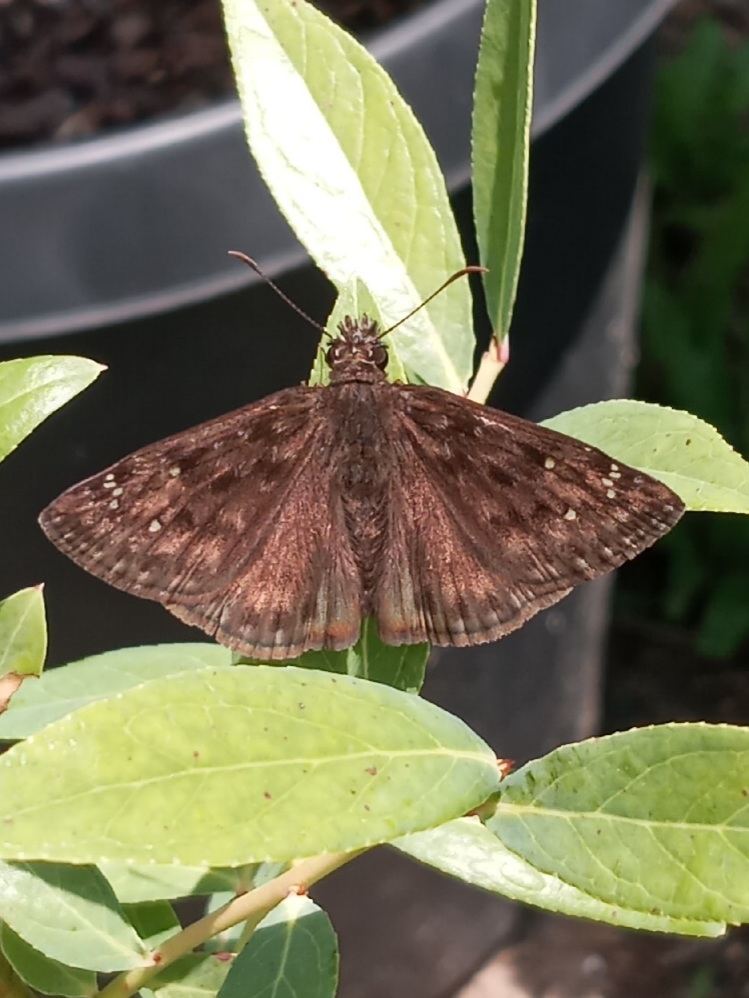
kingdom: Animalia
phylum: Arthropoda
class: Insecta
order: Lepidoptera
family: Hesperiidae
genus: Erynnis
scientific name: Erynnis horatius
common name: Horace's duskywing
